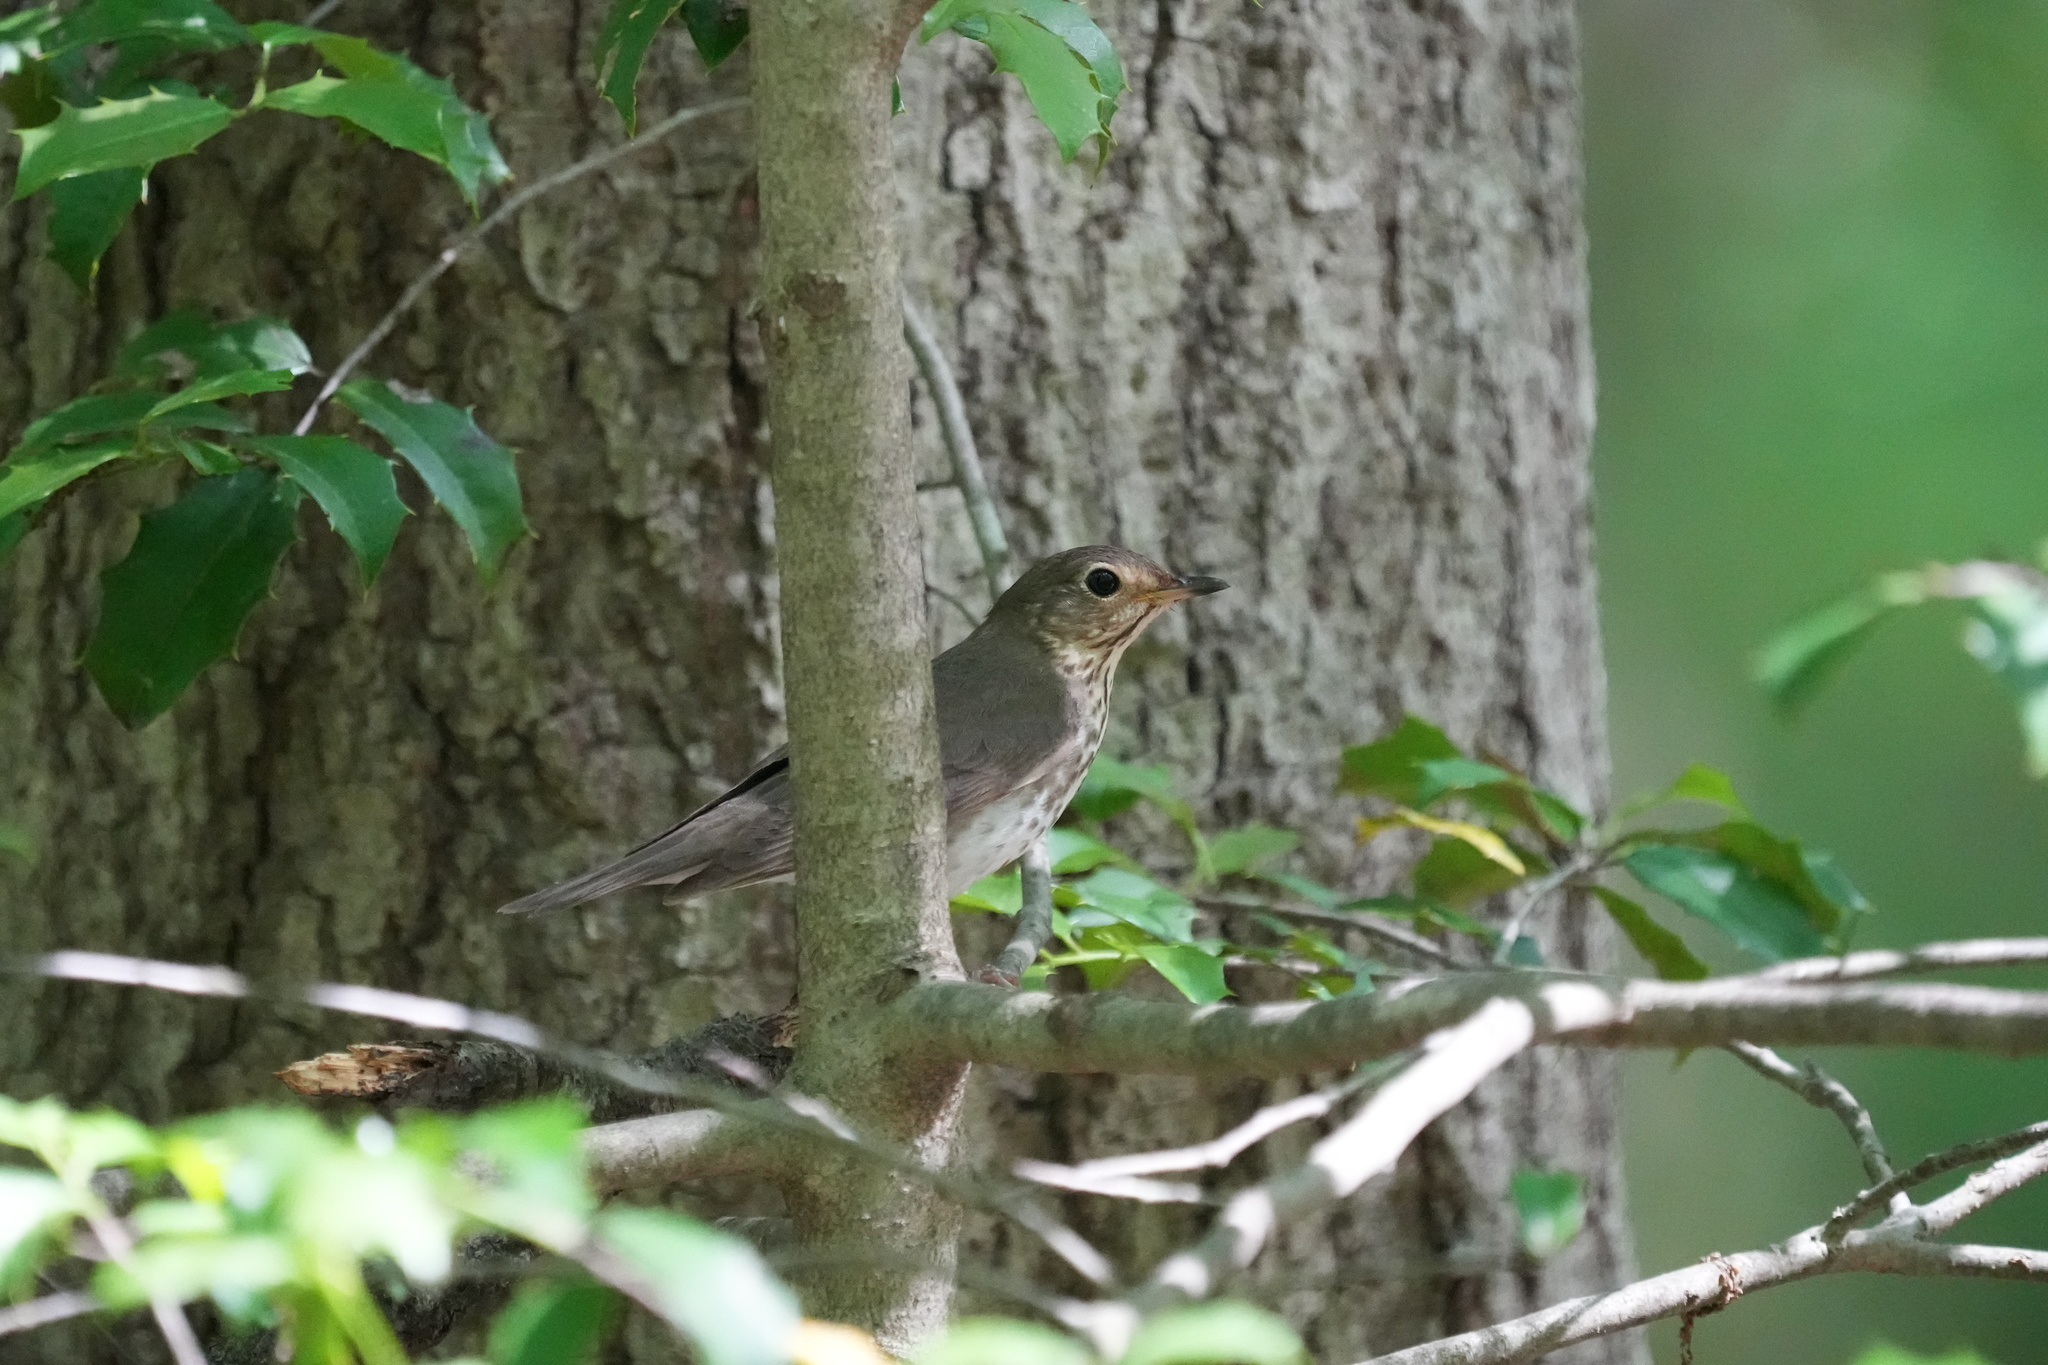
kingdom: Animalia
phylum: Chordata
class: Aves
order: Passeriformes
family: Turdidae
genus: Catharus
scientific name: Catharus ustulatus
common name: Swainson's thrush
